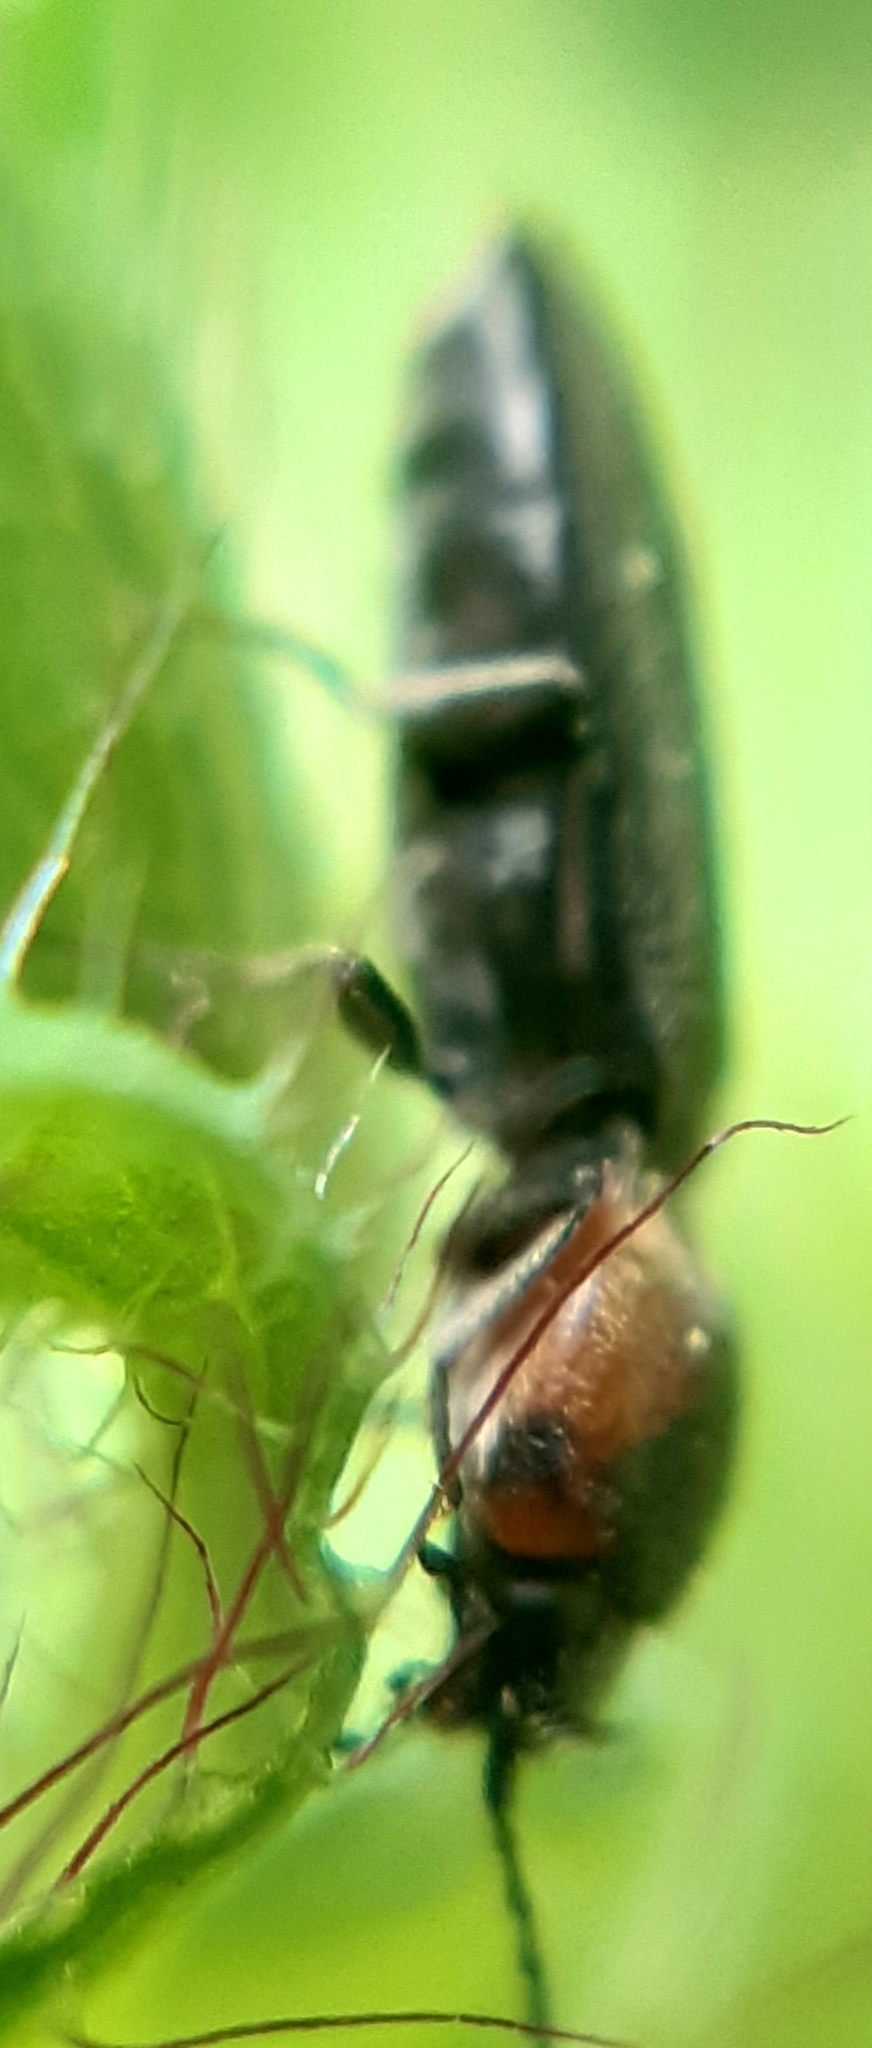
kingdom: Animalia
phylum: Arthropoda
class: Insecta
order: Coleoptera
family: Elateridae
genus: Cardiophorus
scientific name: Cardiophorus discicollis
